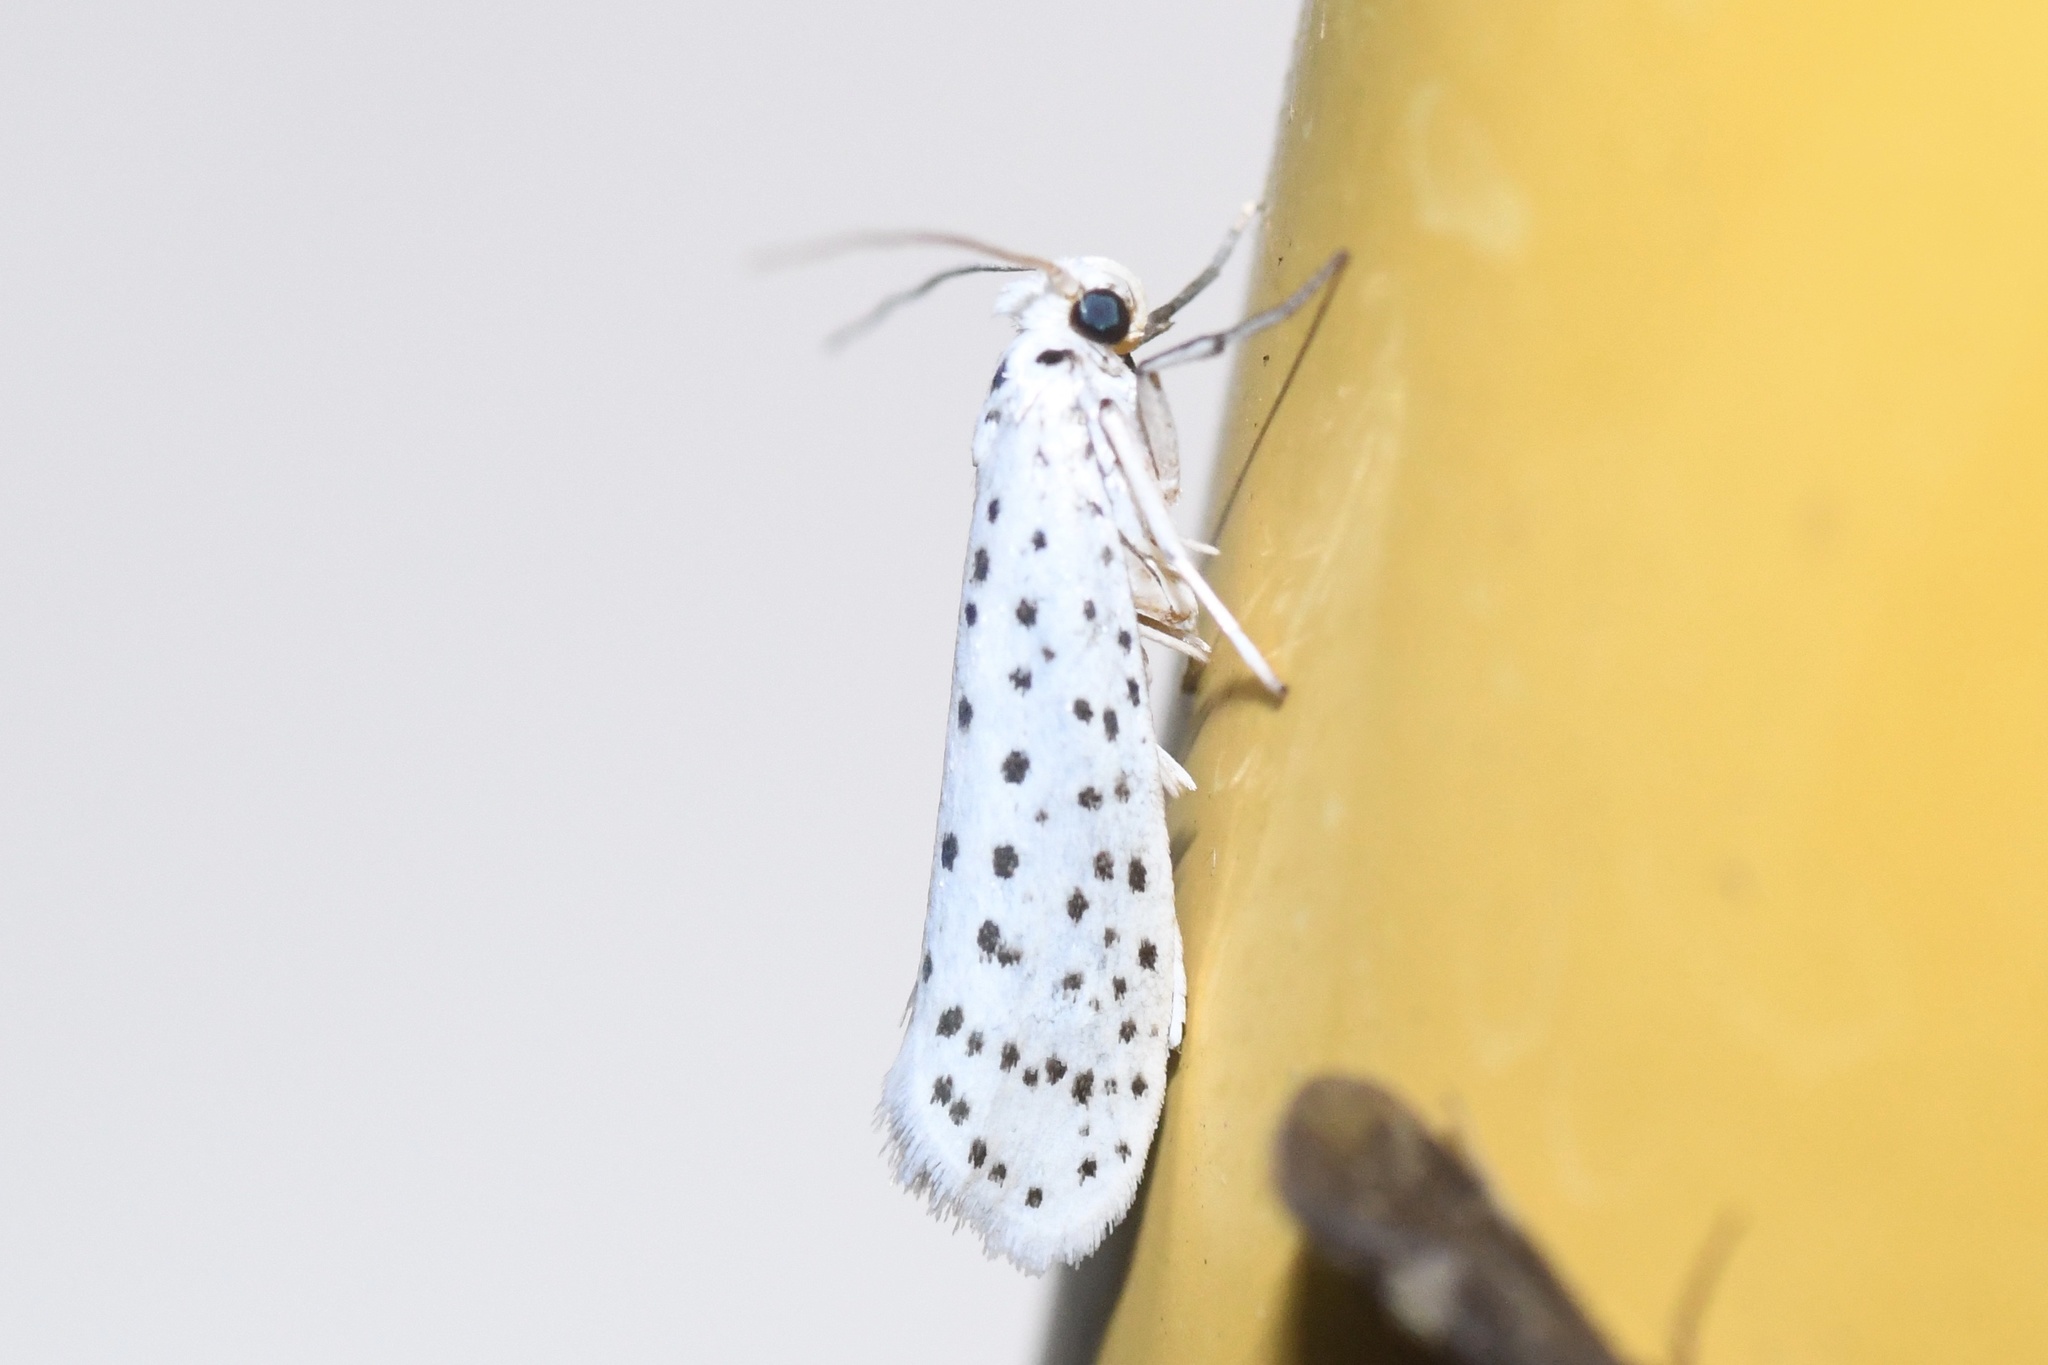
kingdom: Animalia
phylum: Arthropoda
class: Insecta
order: Lepidoptera
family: Yponomeutidae
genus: Yponomeuta
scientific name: Yponomeuta multipunctella
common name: American ermine moth
